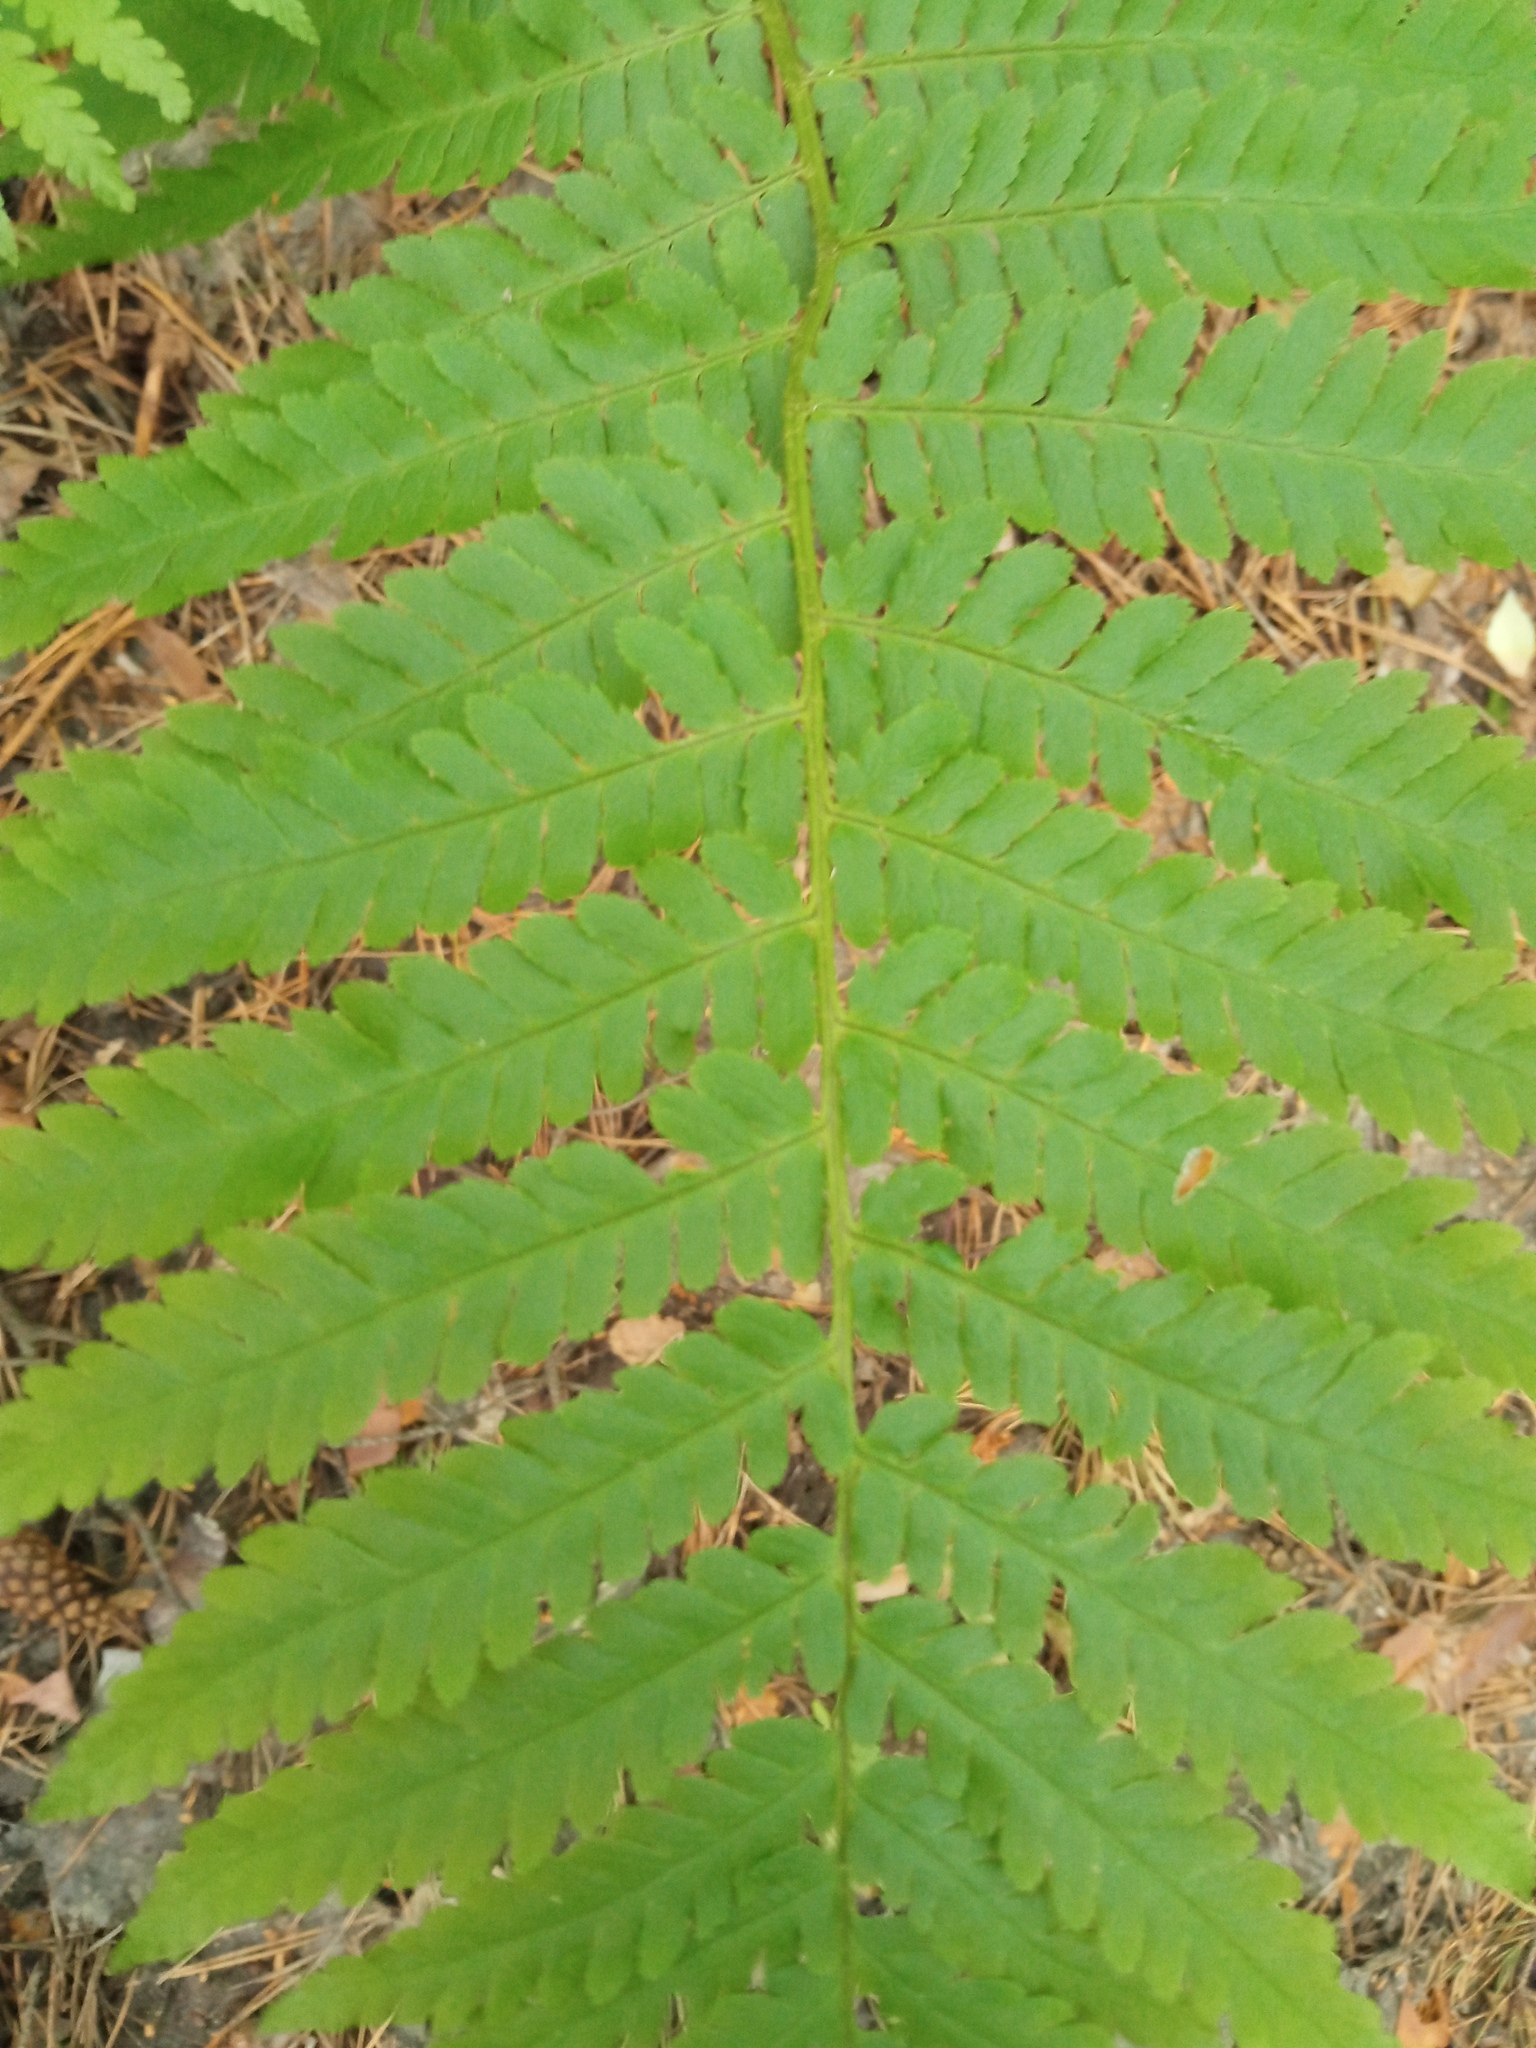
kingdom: Plantae
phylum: Tracheophyta
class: Polypodiopsida
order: Polypodiales
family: Dryopteridaceae
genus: Dryopteris
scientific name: Dryopteris filix-mas
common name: Male fern
